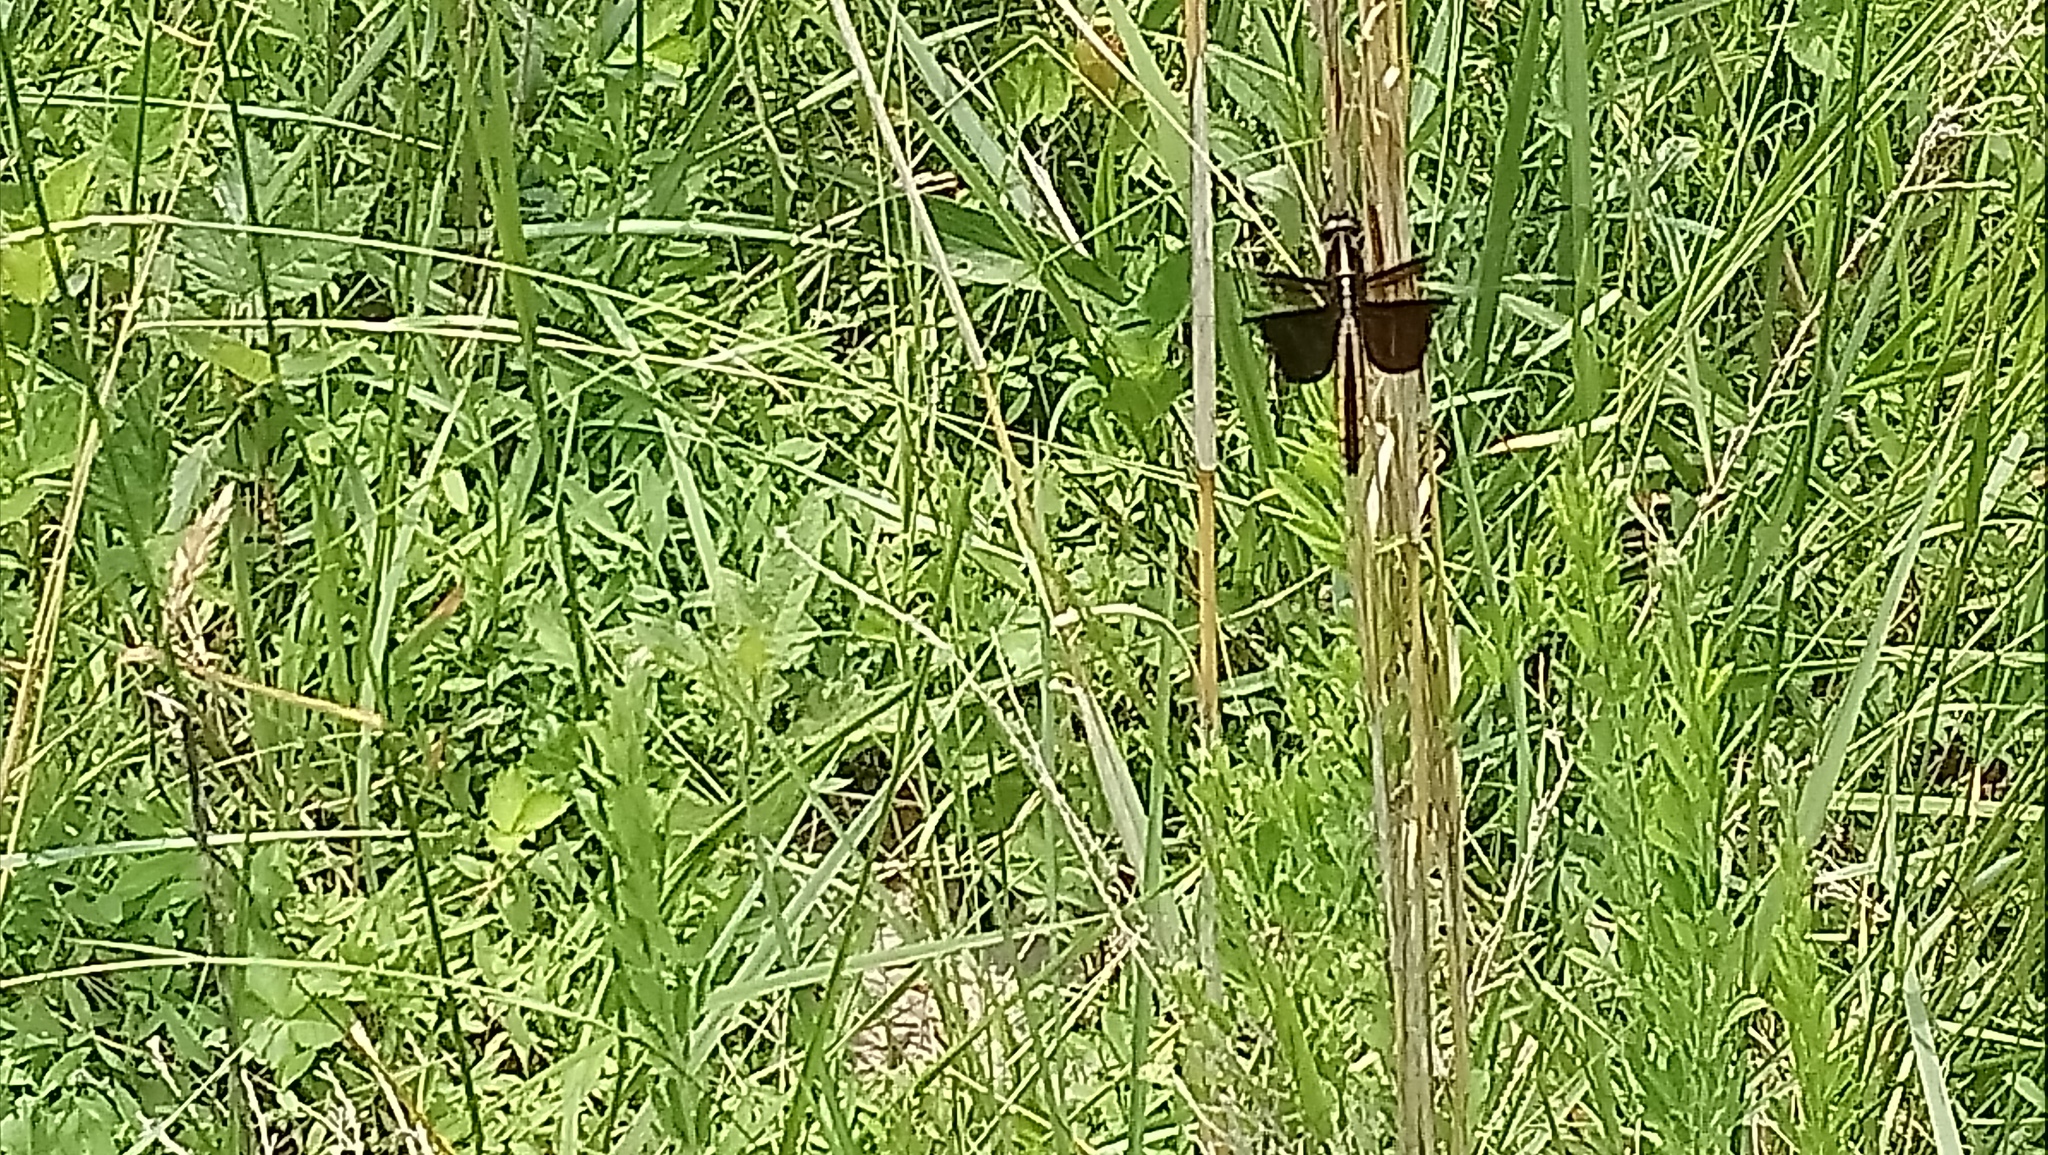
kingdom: Animalia
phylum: Arthropoda
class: Insecta
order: Odonata
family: Libellulidae
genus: Libellula
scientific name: Libellula luctuosa
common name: Widow skimmer
